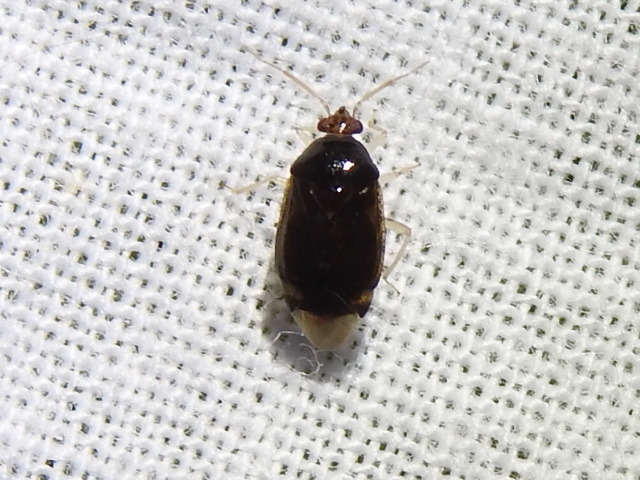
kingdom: Animalia
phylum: Arthropoda
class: Insecta
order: Hemiptera
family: Miridae
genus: Deraeocoris
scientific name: Deraeocoris davisi
